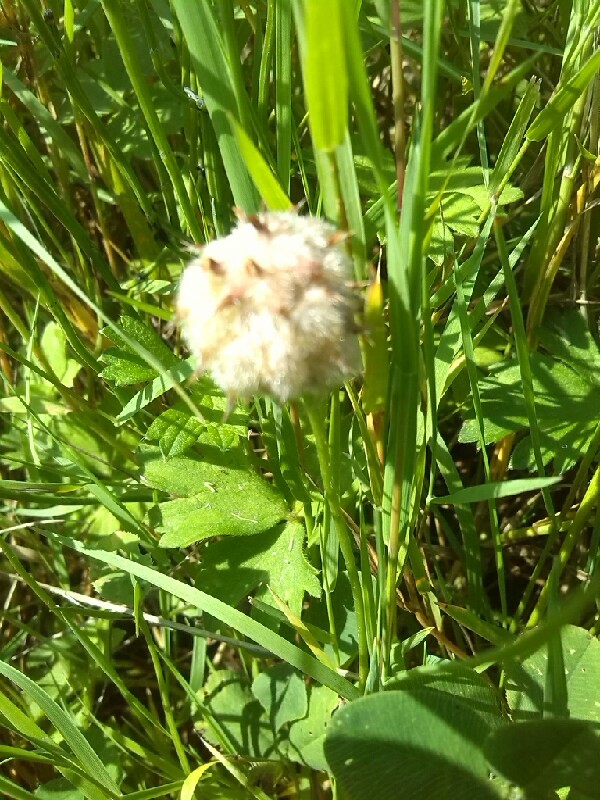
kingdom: Plantae
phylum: Tracheophyta
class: Magnoliopsida
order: Fabales
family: Fabaceae
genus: Trifolium
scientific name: Trifolium fragiferum
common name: Strawberry clover
